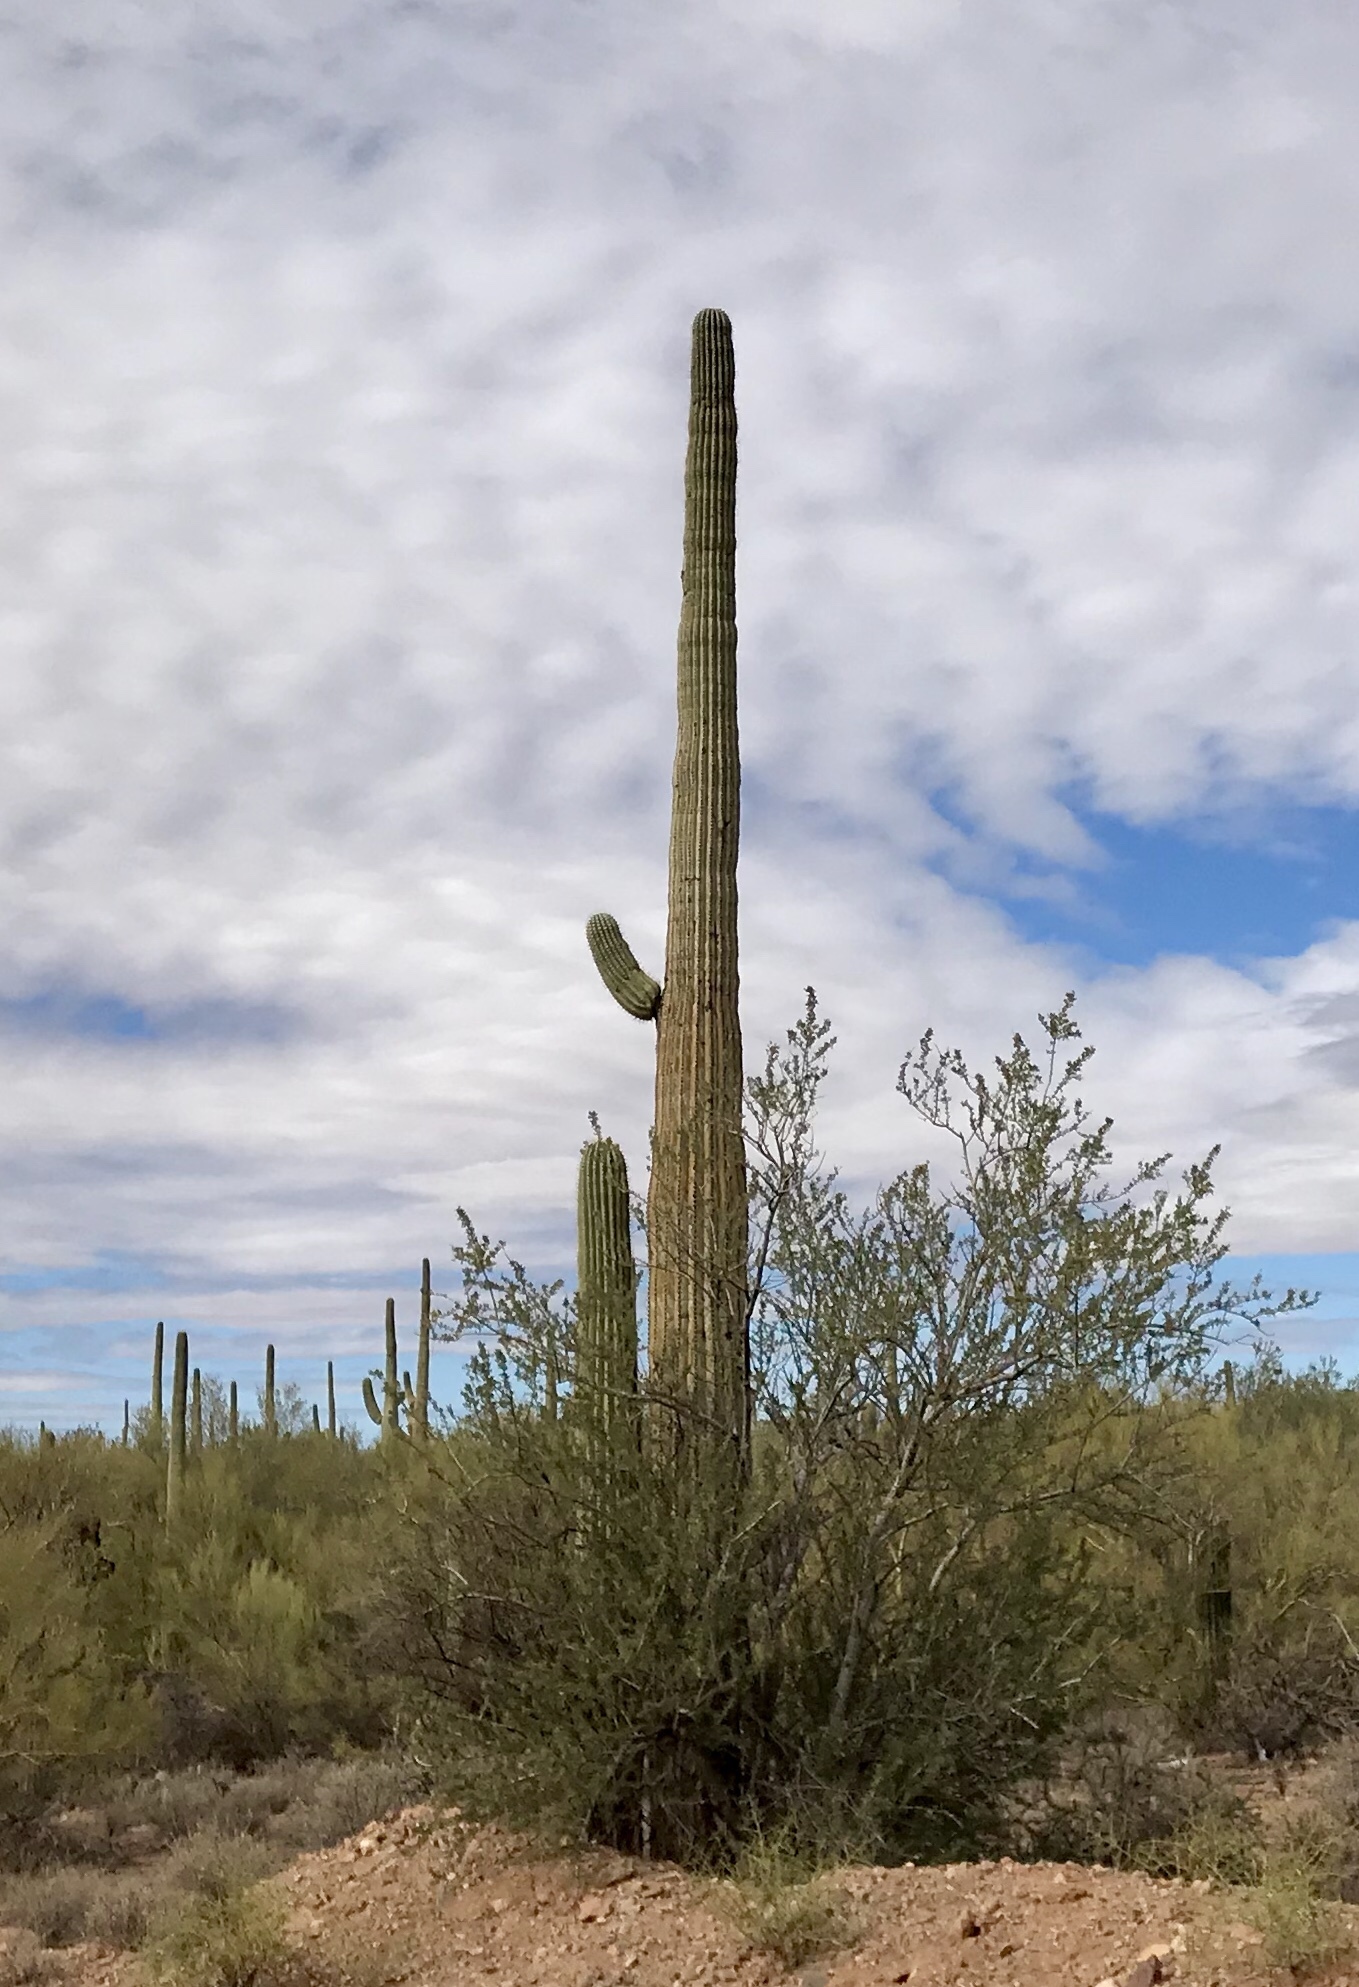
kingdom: Plantae
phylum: Tracheophyta
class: Magnoliopsida
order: Caryophyllales
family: Cactaceae
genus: Carnegiea
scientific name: Carnegiea gigantea
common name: Saguaro
